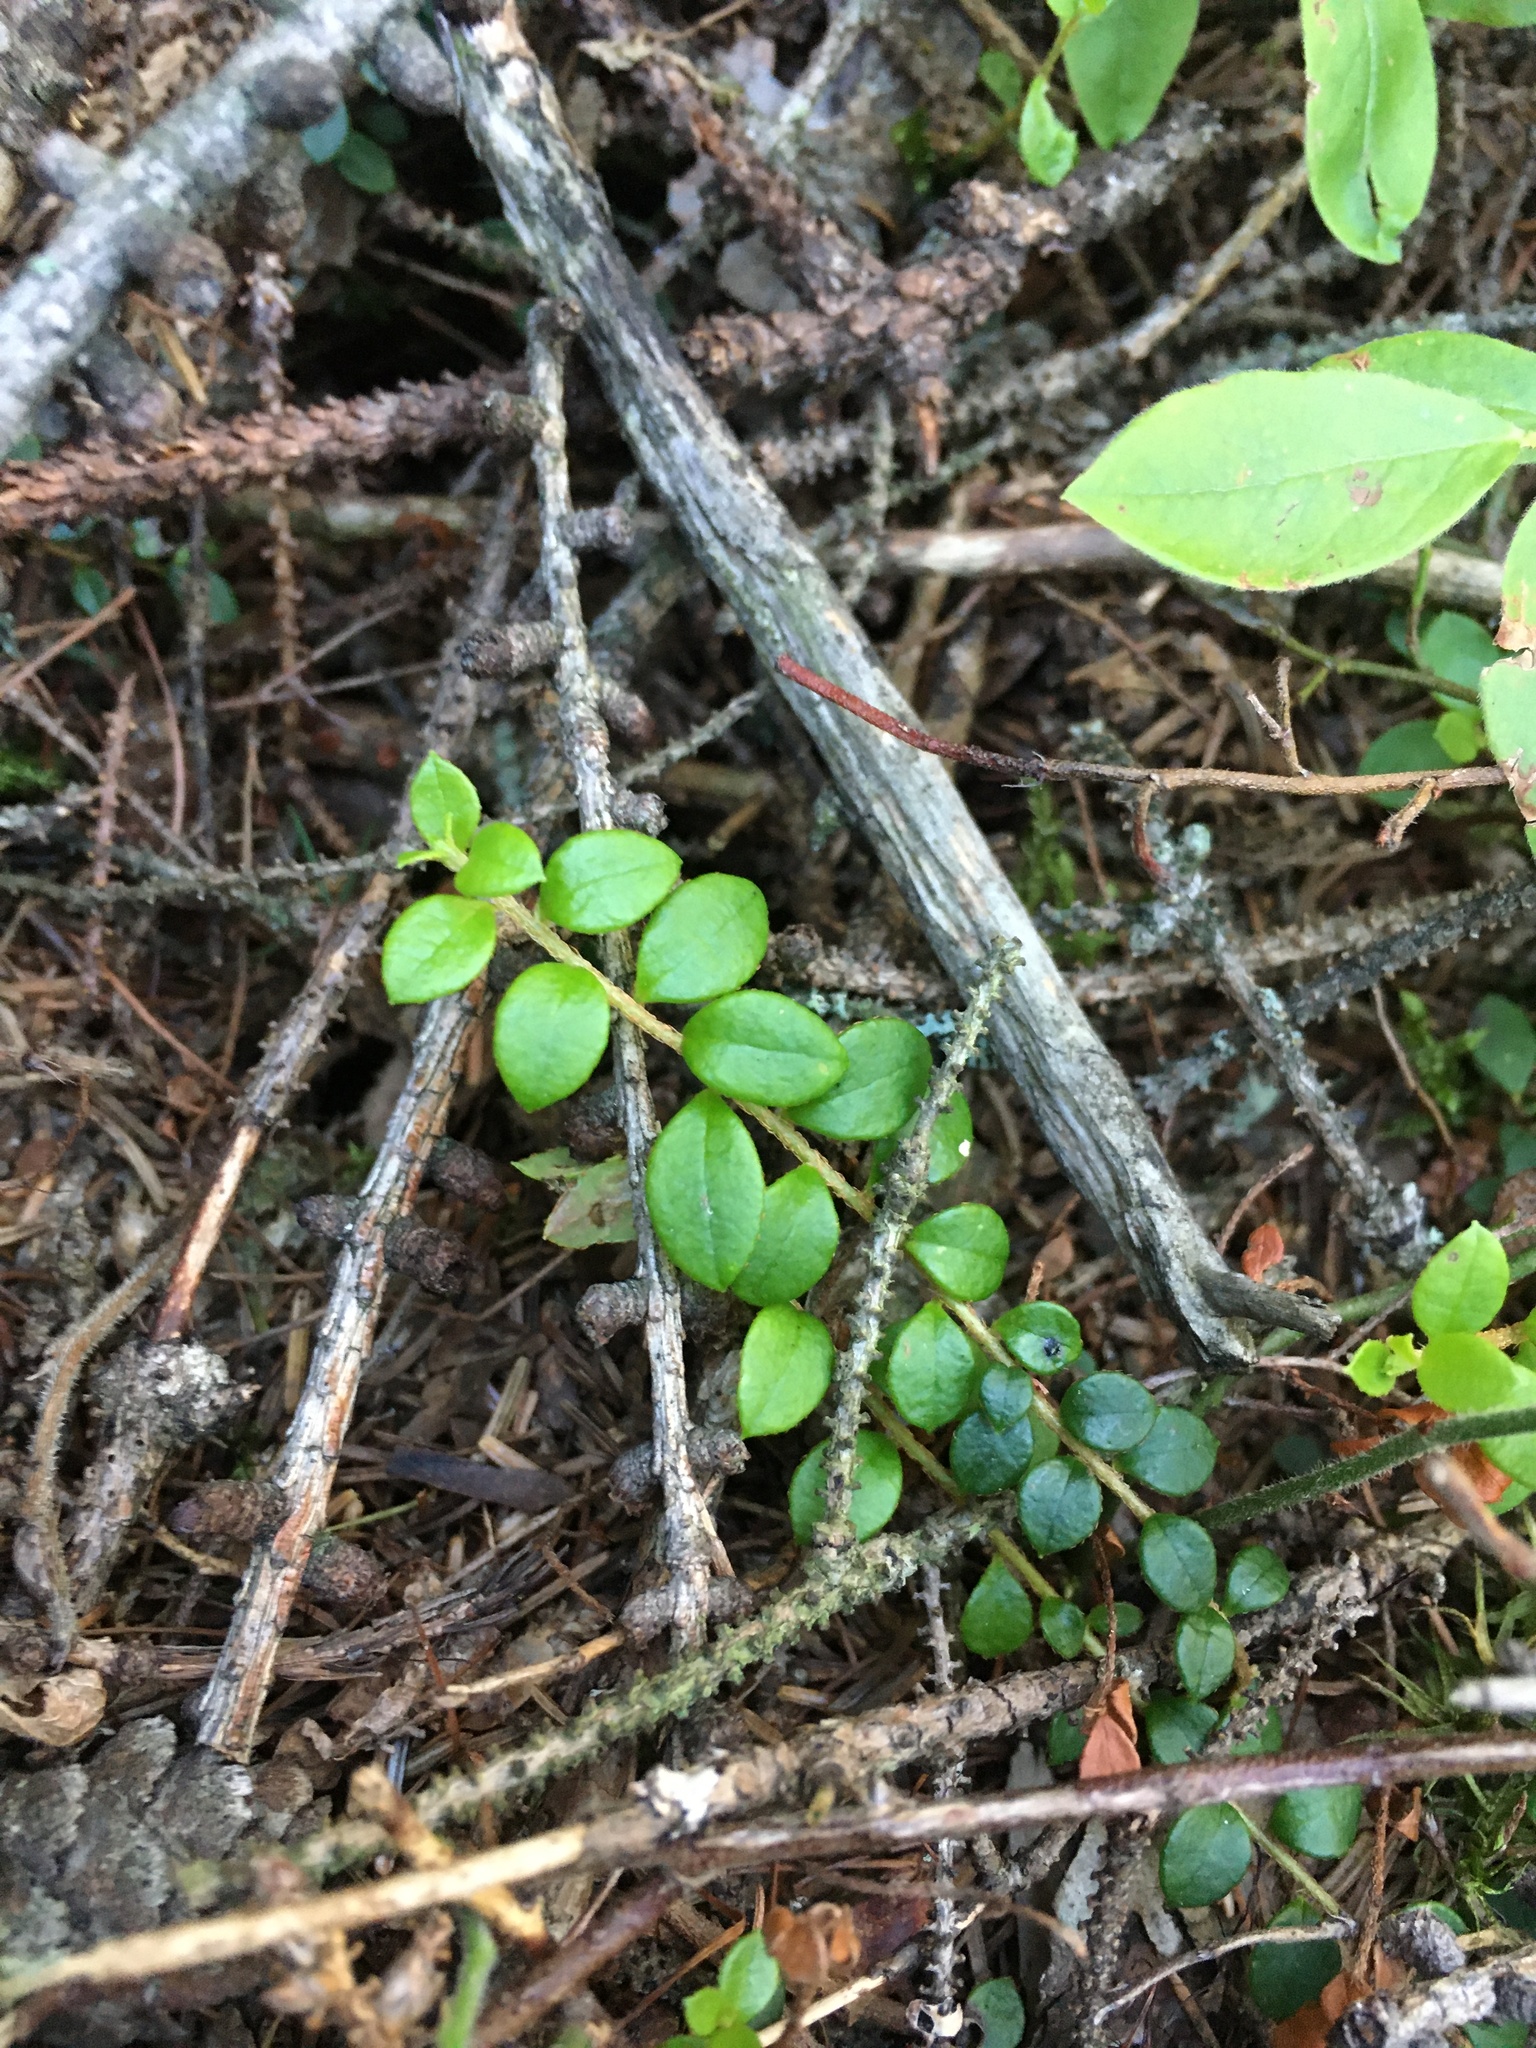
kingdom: Plantae
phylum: Tracheophyta
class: Magnoliopsida
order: Ericales
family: Ericaceae
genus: Gaultheria
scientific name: Gaultheria hispidula
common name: Cancer wintergreen
